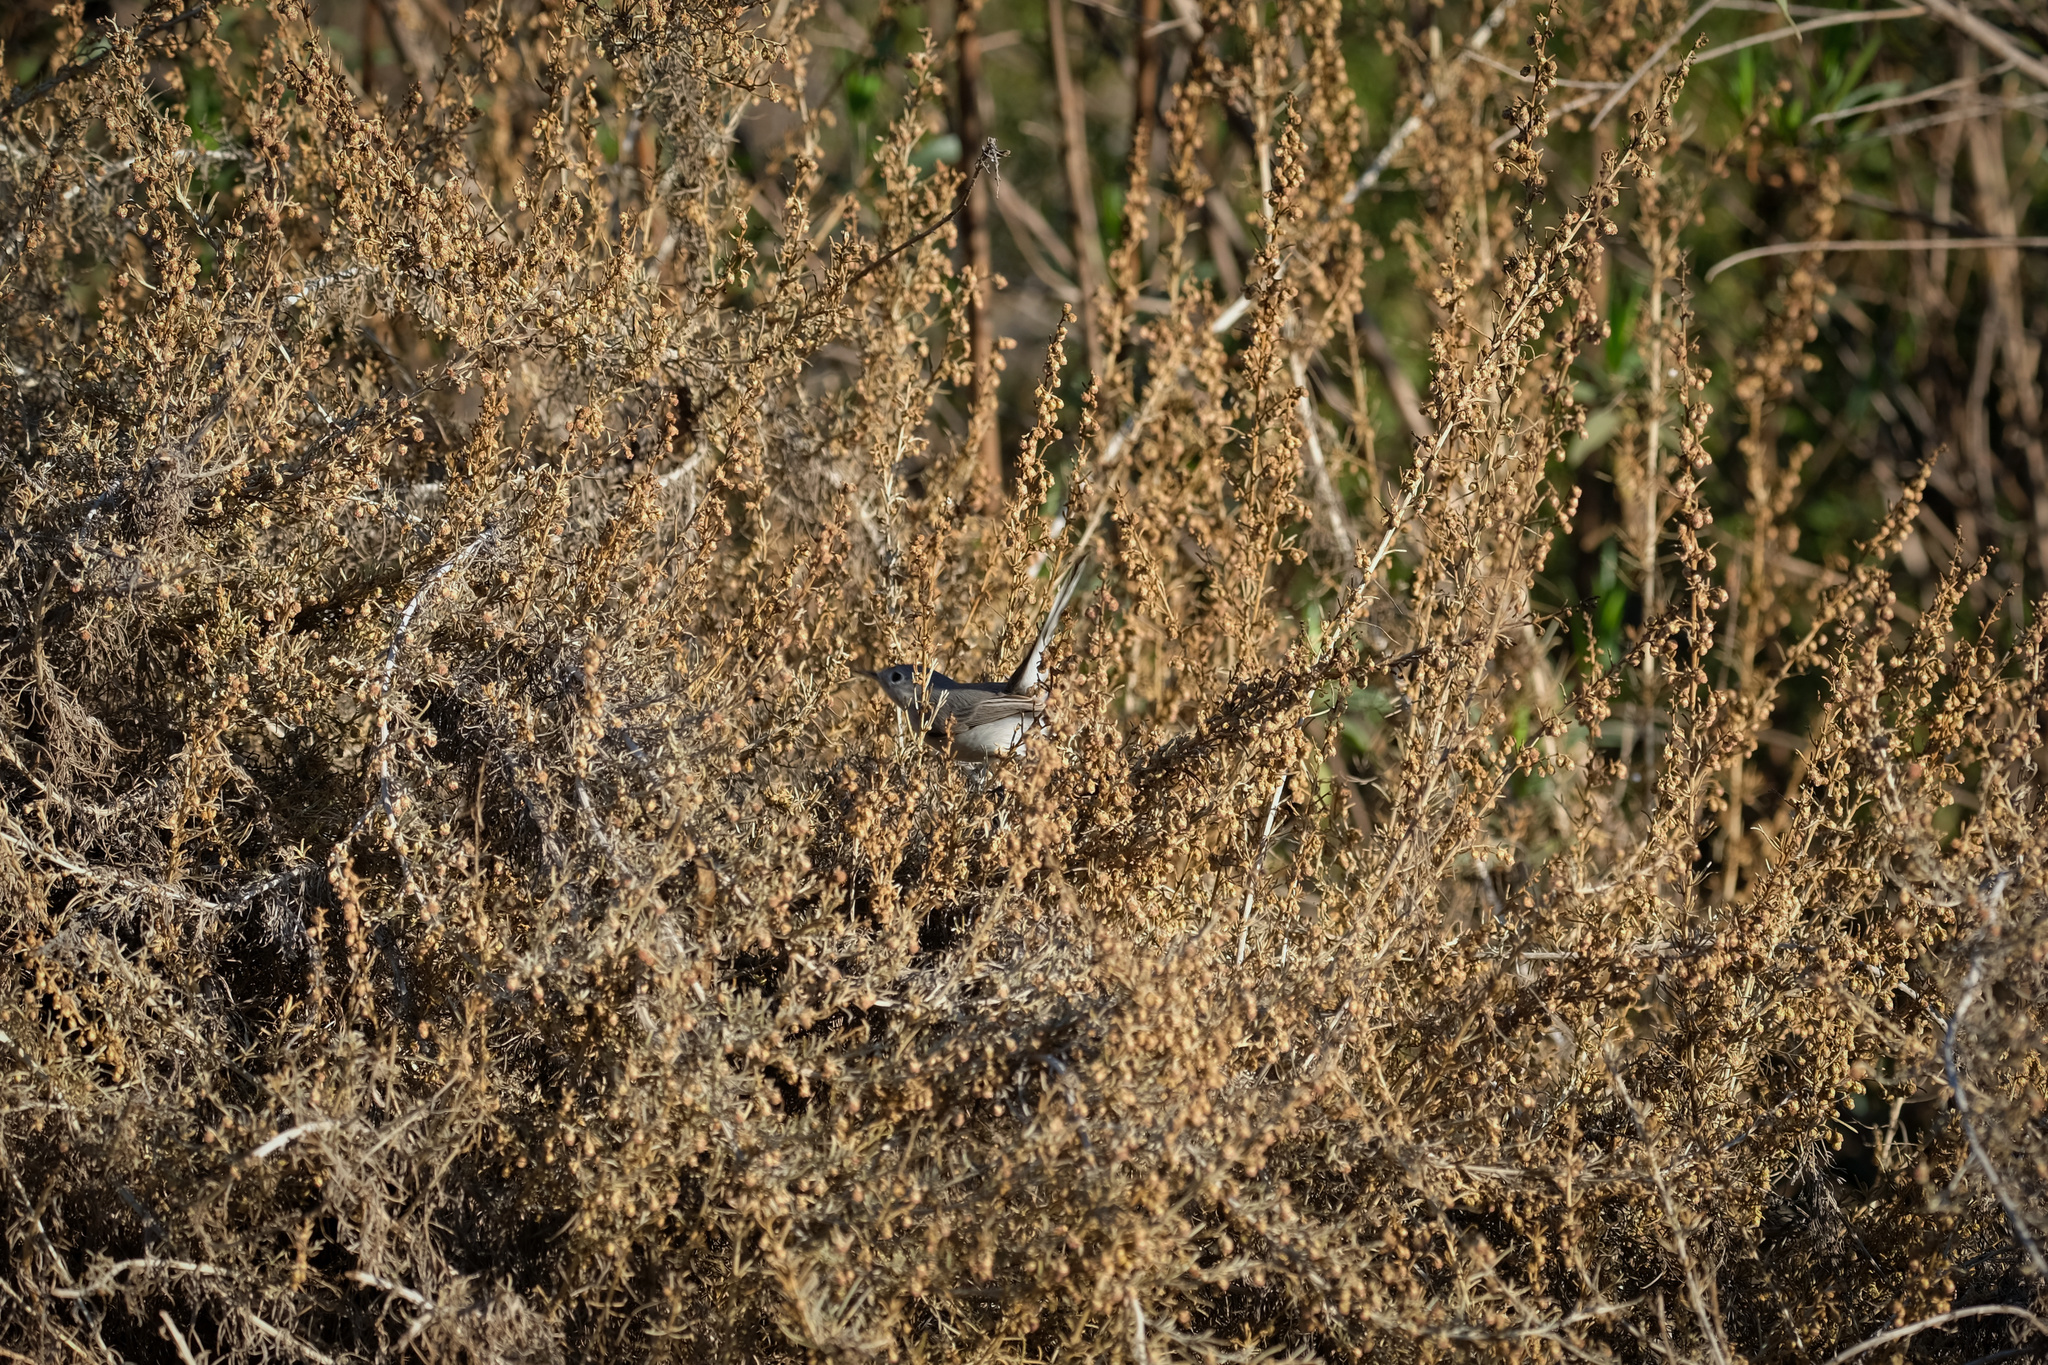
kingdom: Animalia
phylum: Chordata
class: Aves
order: Passeriformes
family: Polioptilidae
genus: Polioptila
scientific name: Polioptila californica
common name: California gnatcatcher
